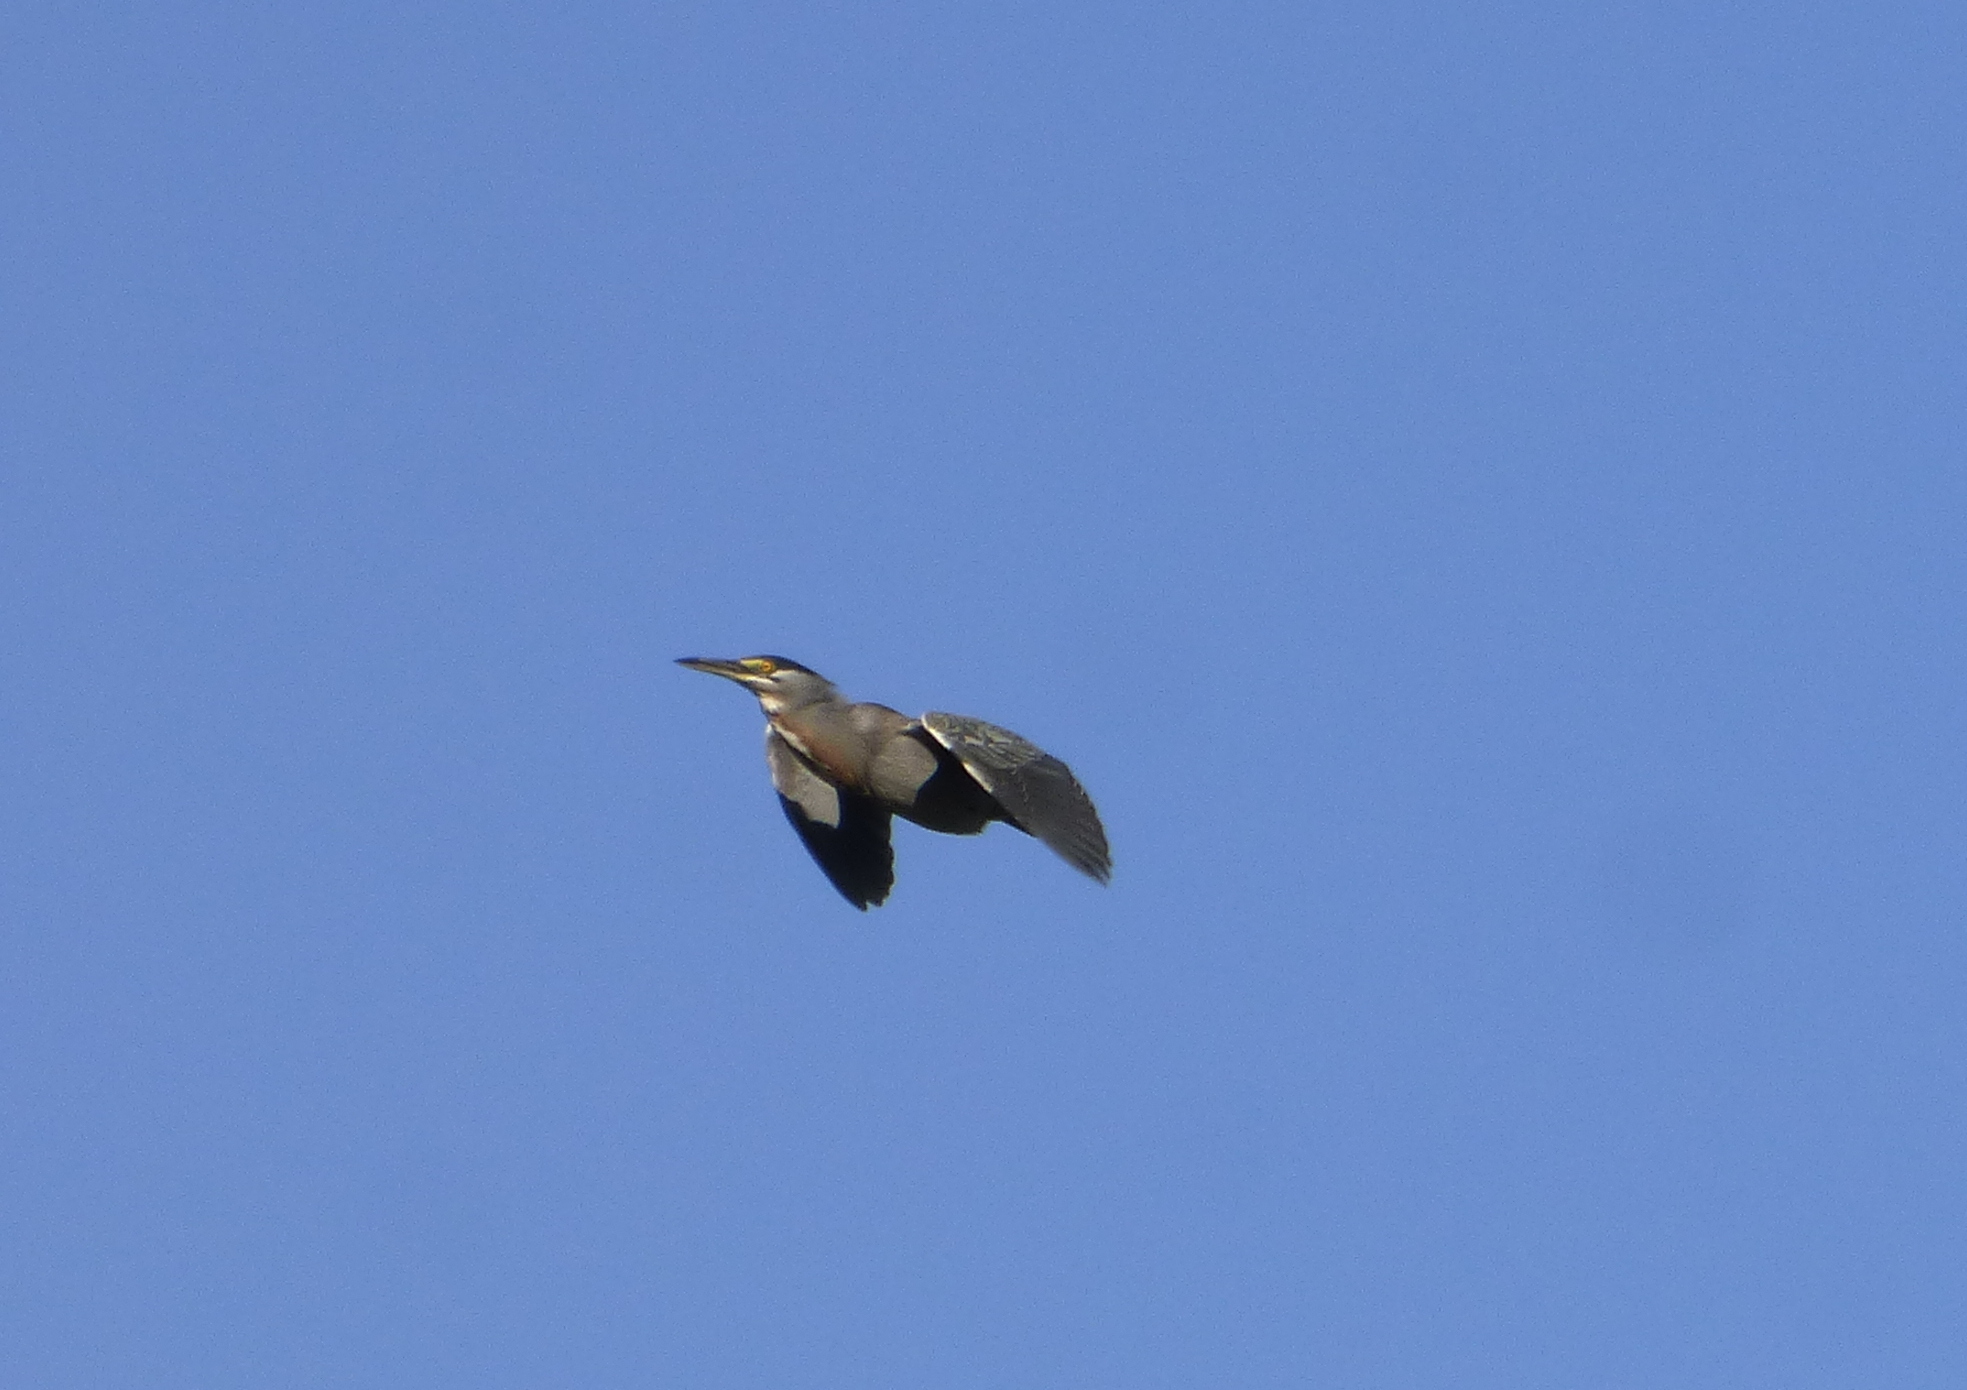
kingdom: Animalia
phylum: Chordata
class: Aves
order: Pelecaniformes
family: Ardeidae
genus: Butorides
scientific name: Butorides striata
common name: Striated heron
